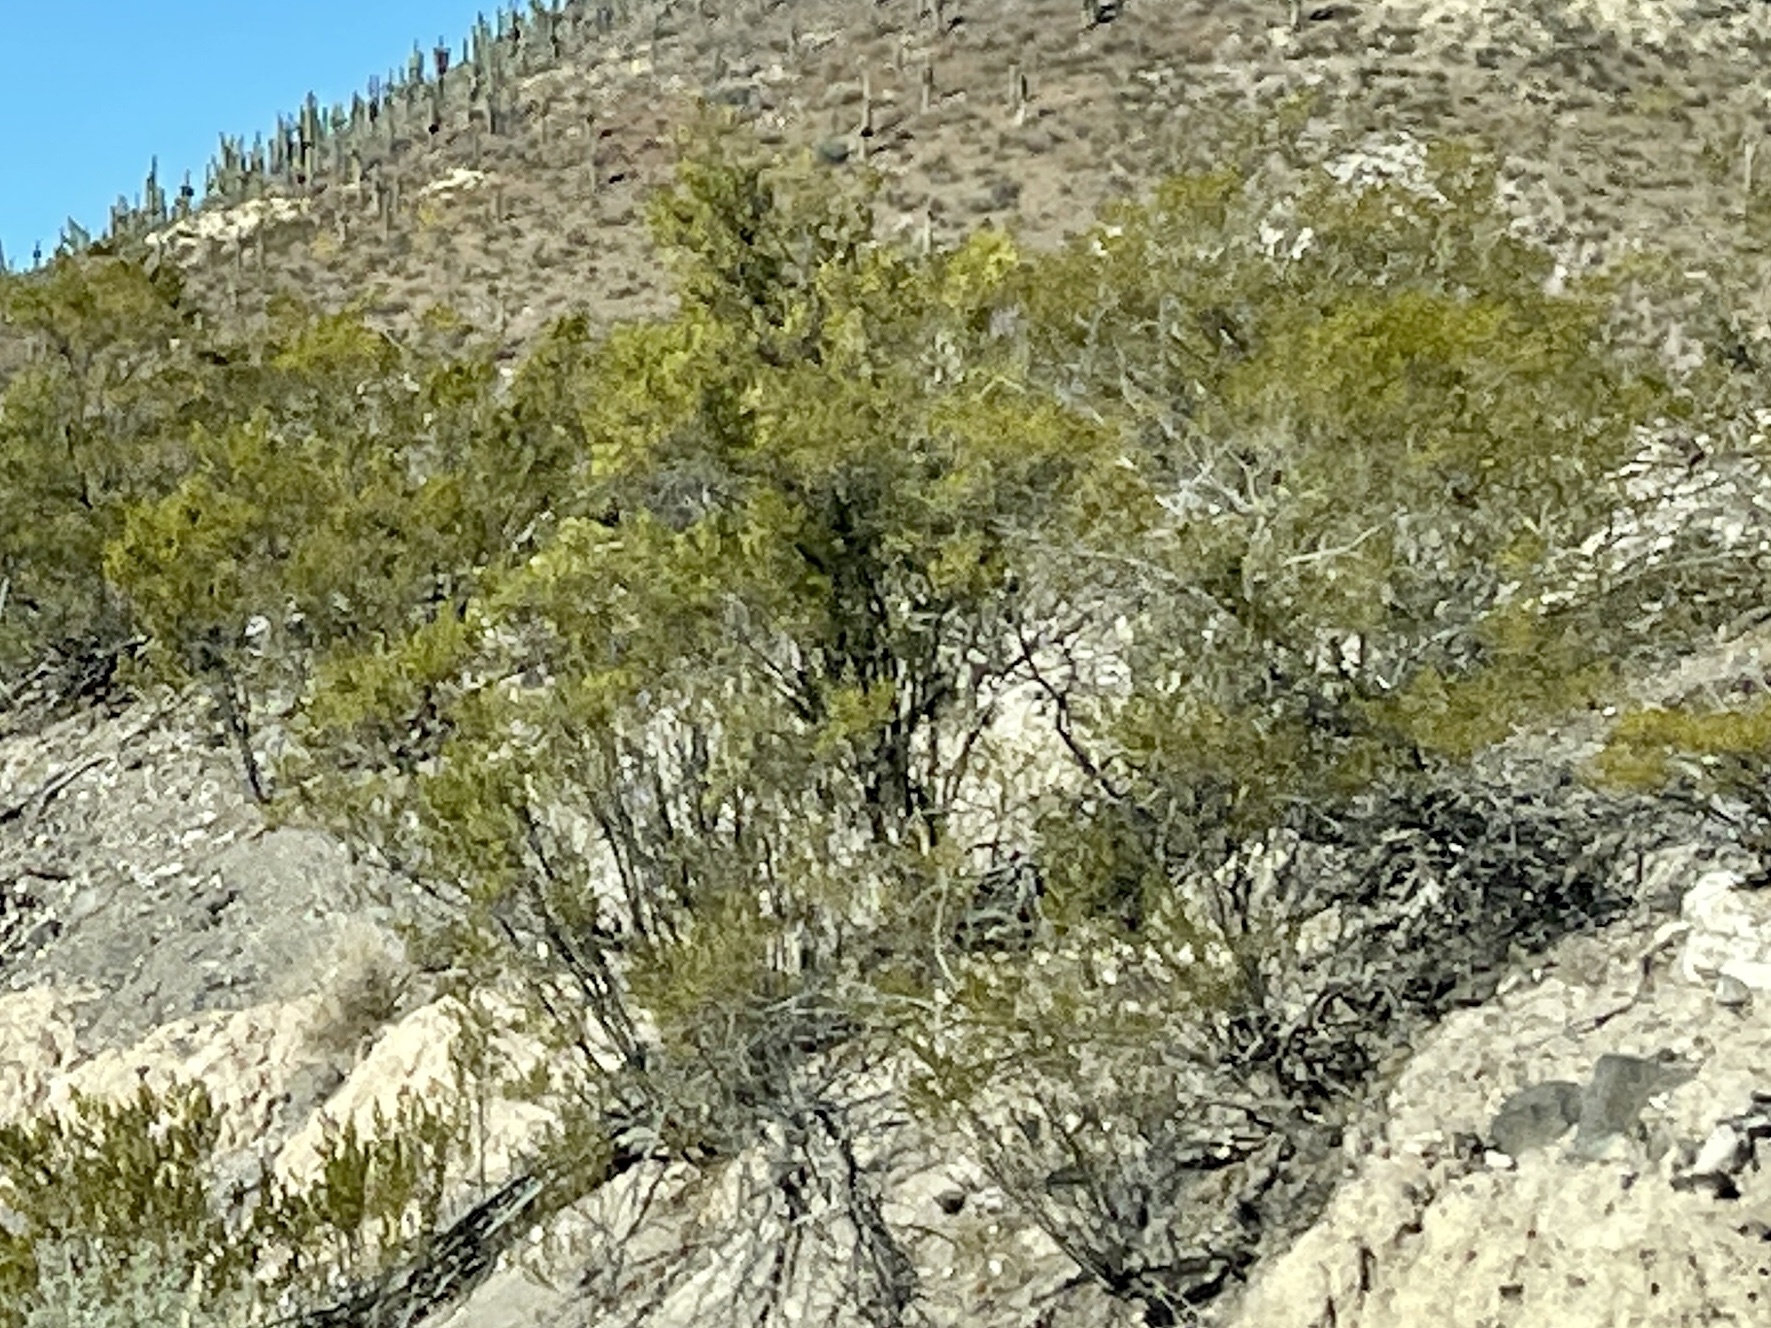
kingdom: Plantae
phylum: Tracheophyta
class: Magnoliopsida
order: Zygophyllales
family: Zygophyllaceae
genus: Larrea
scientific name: Larrea tridentata
